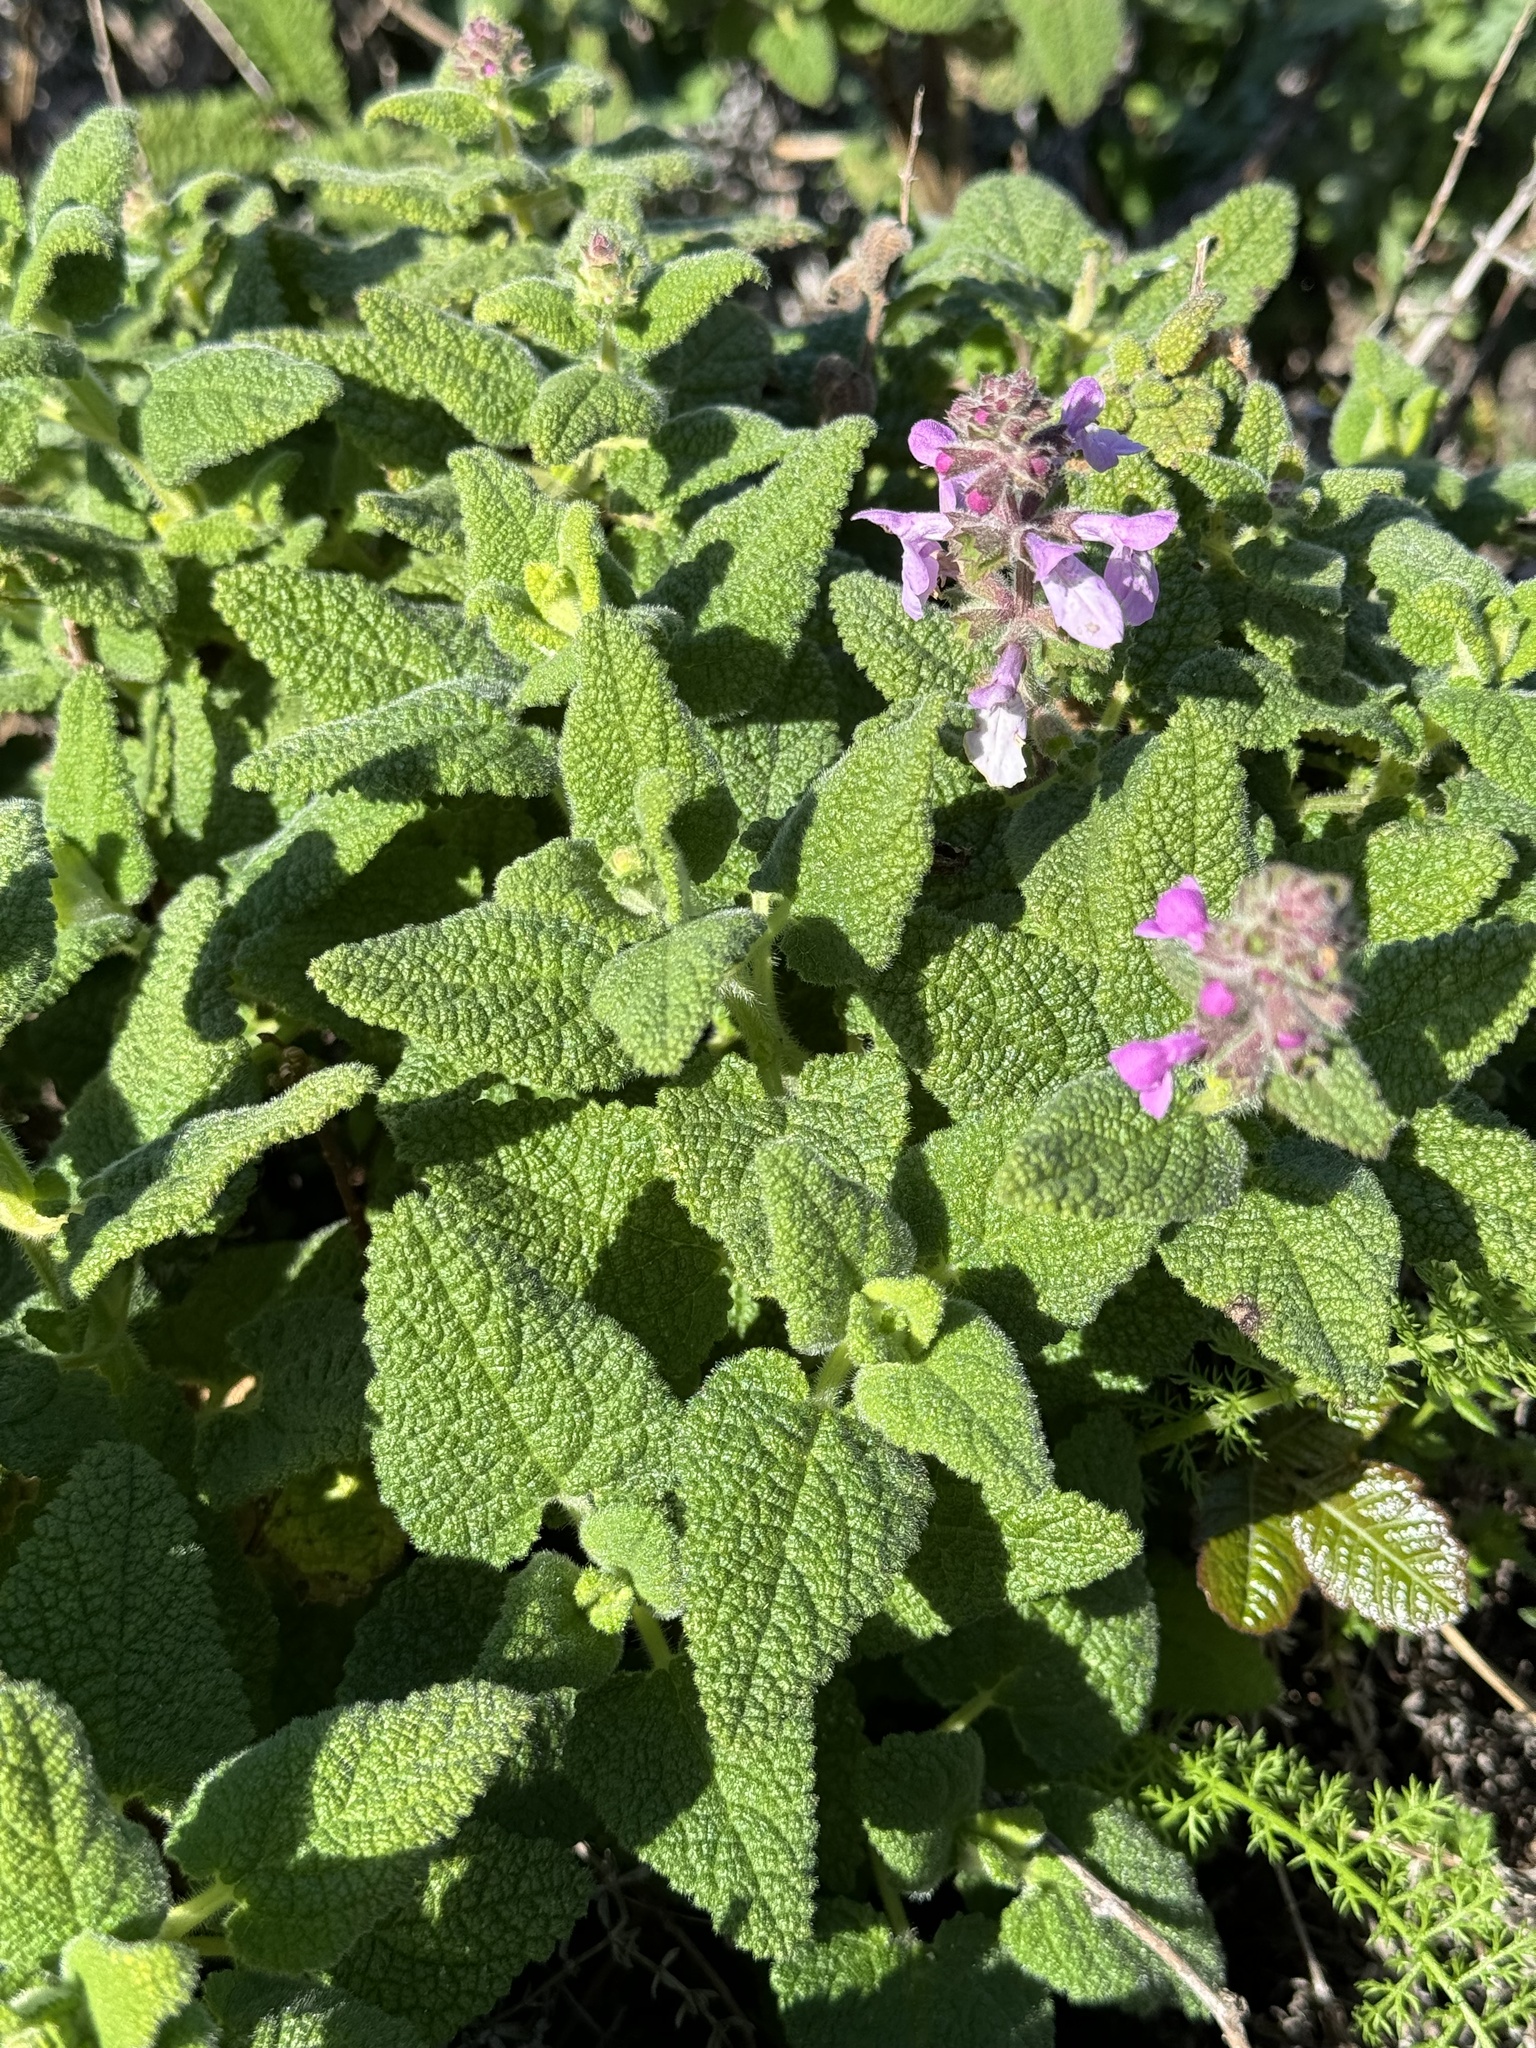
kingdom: Plantae
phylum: Tracheophyta
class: Magnoliopsida
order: Lamiales
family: Lamiaceae
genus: Stachys
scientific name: Stachys bullata
